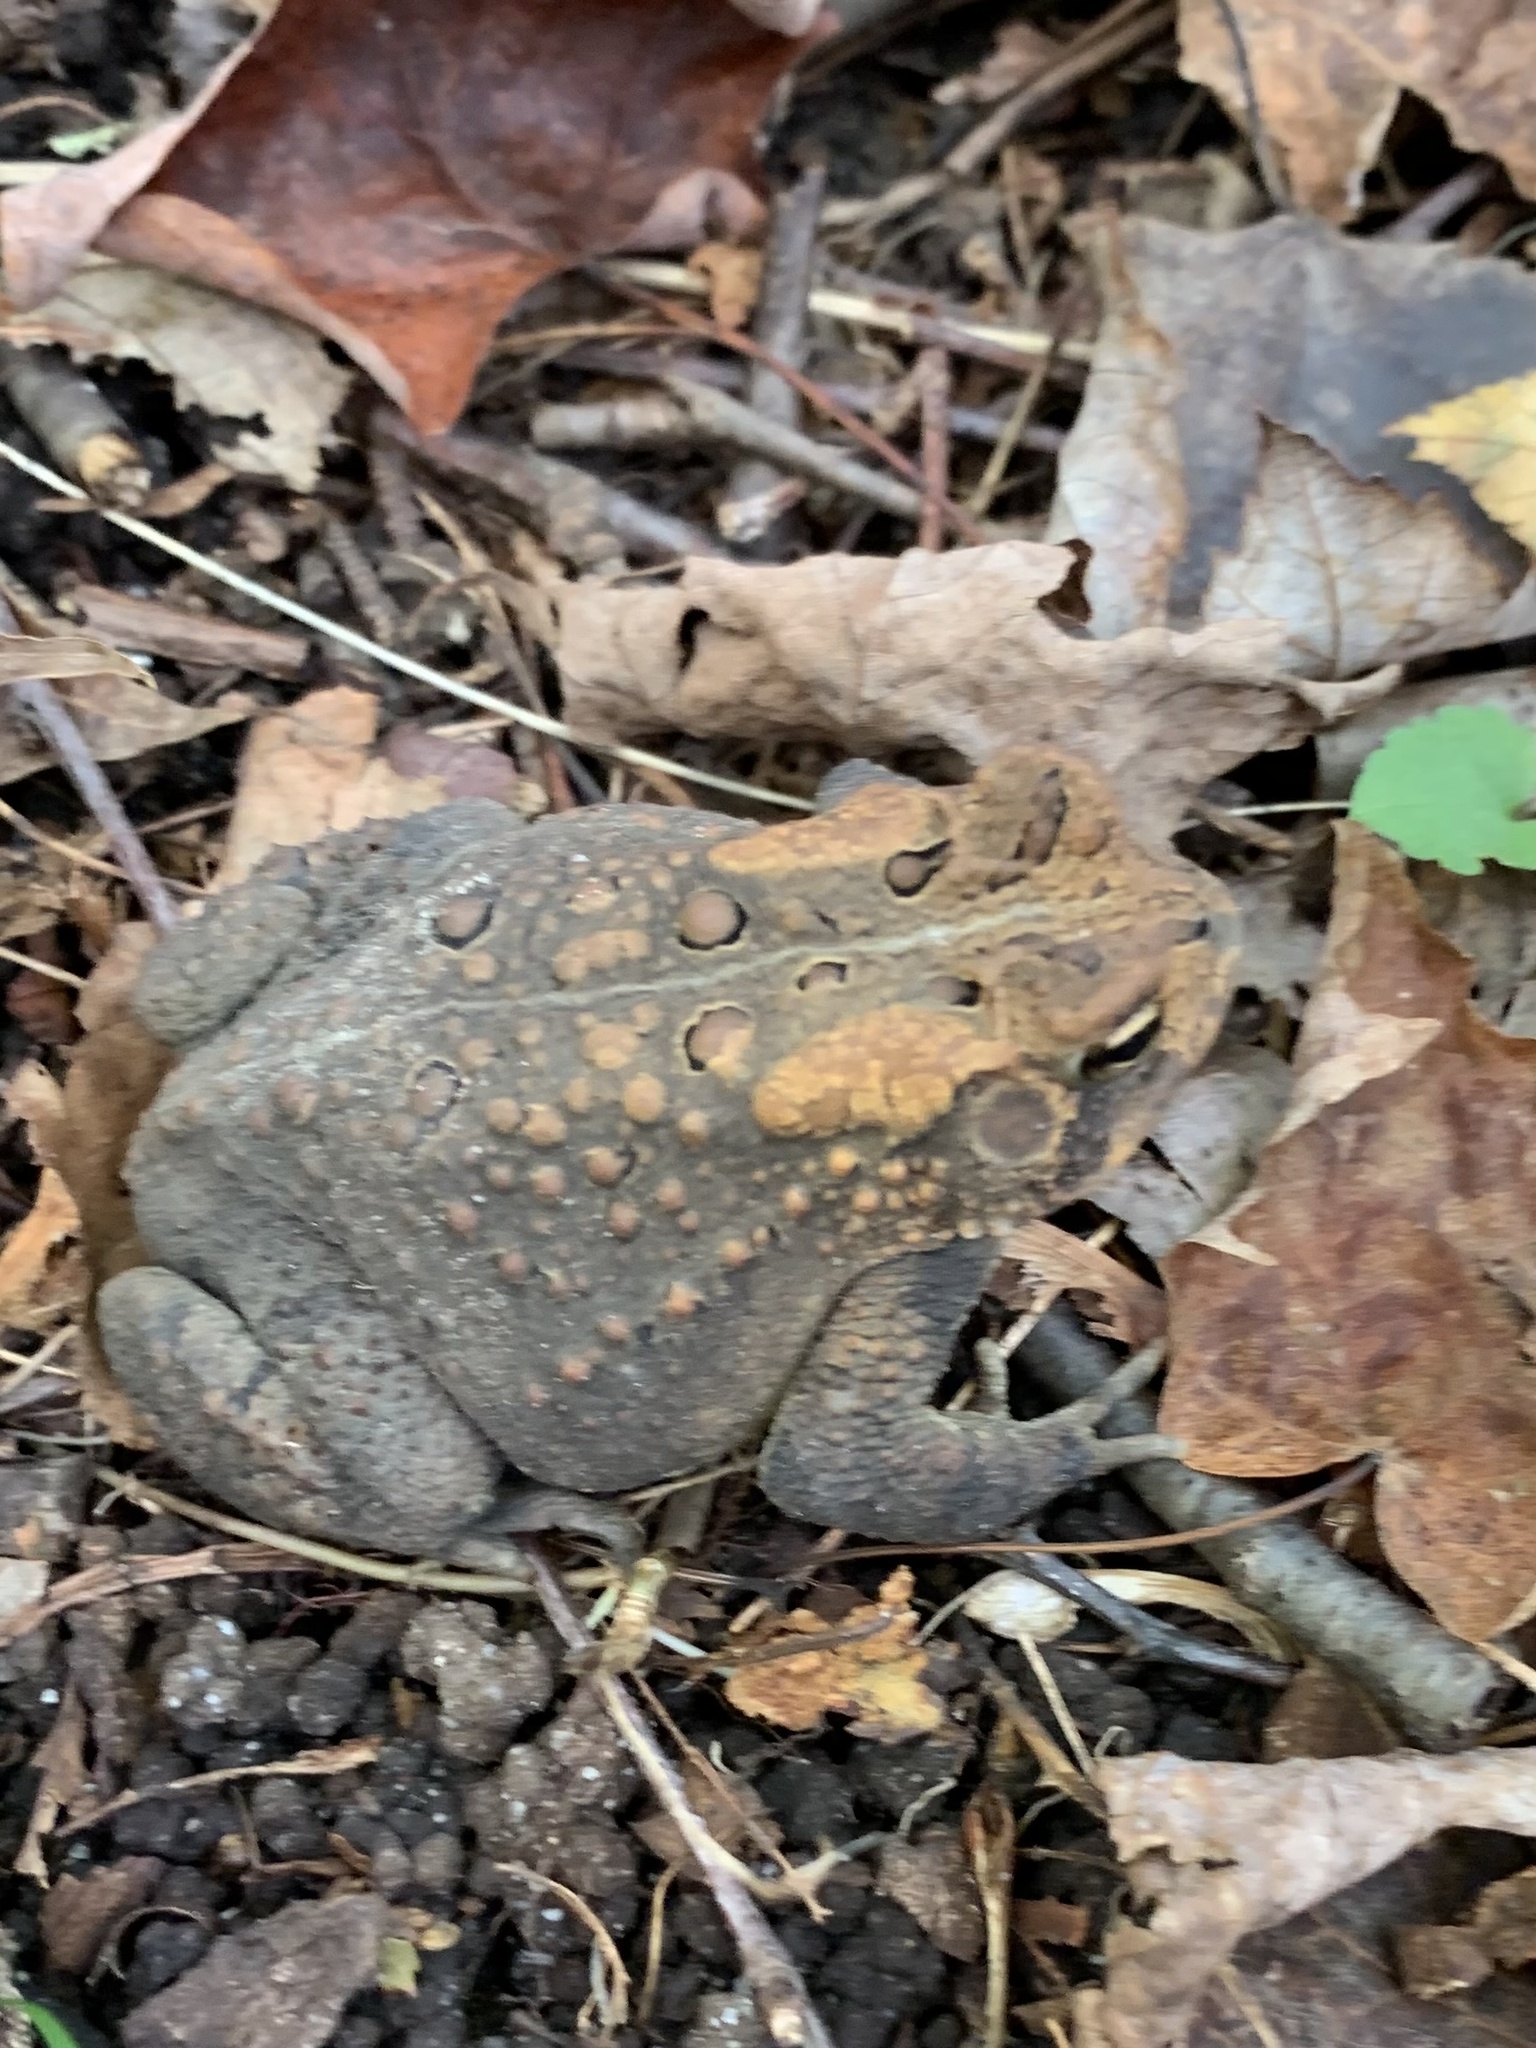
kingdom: Animalia
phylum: Chordata
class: Amphibia
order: Anura
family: Bufonidae
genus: Anaxyrus
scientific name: Anaxyrus americanus
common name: American toad
